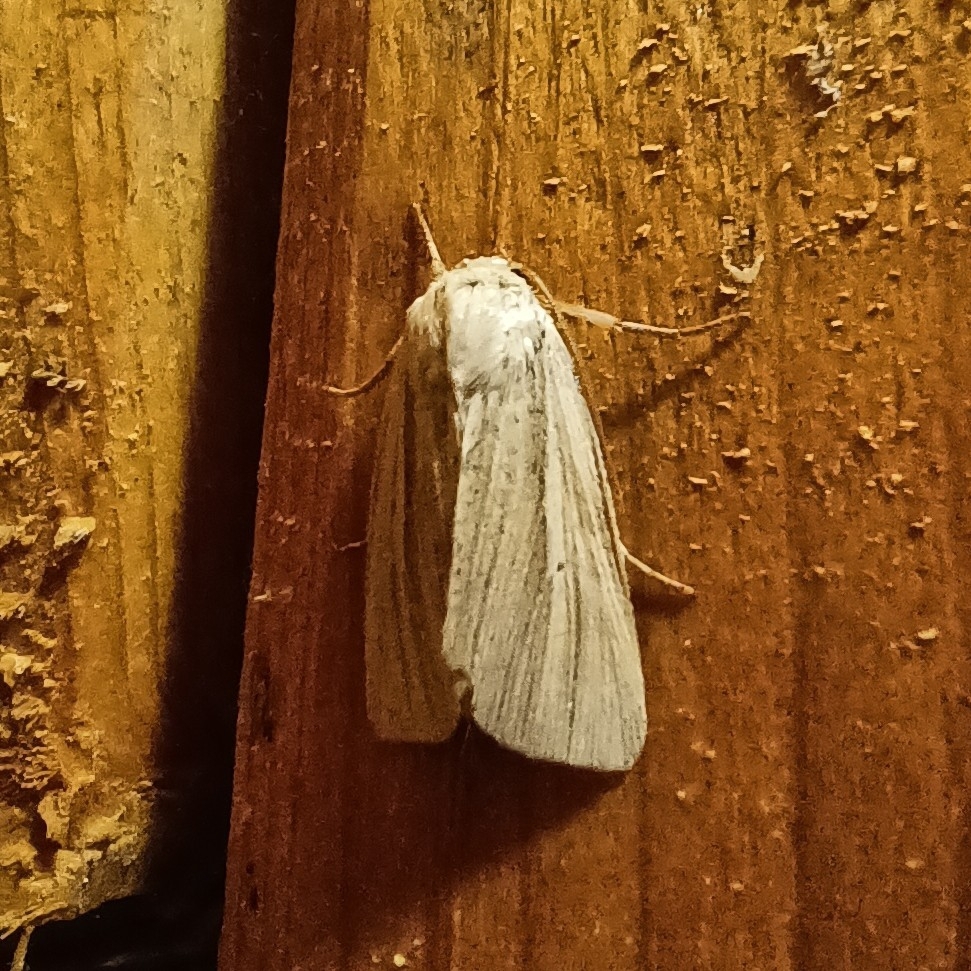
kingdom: Animalia
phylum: Arthropoda
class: Insecta
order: Lepidoptera
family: Noctuidae
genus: Mythimna
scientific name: Mythimna impura
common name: Smoky wainscot
